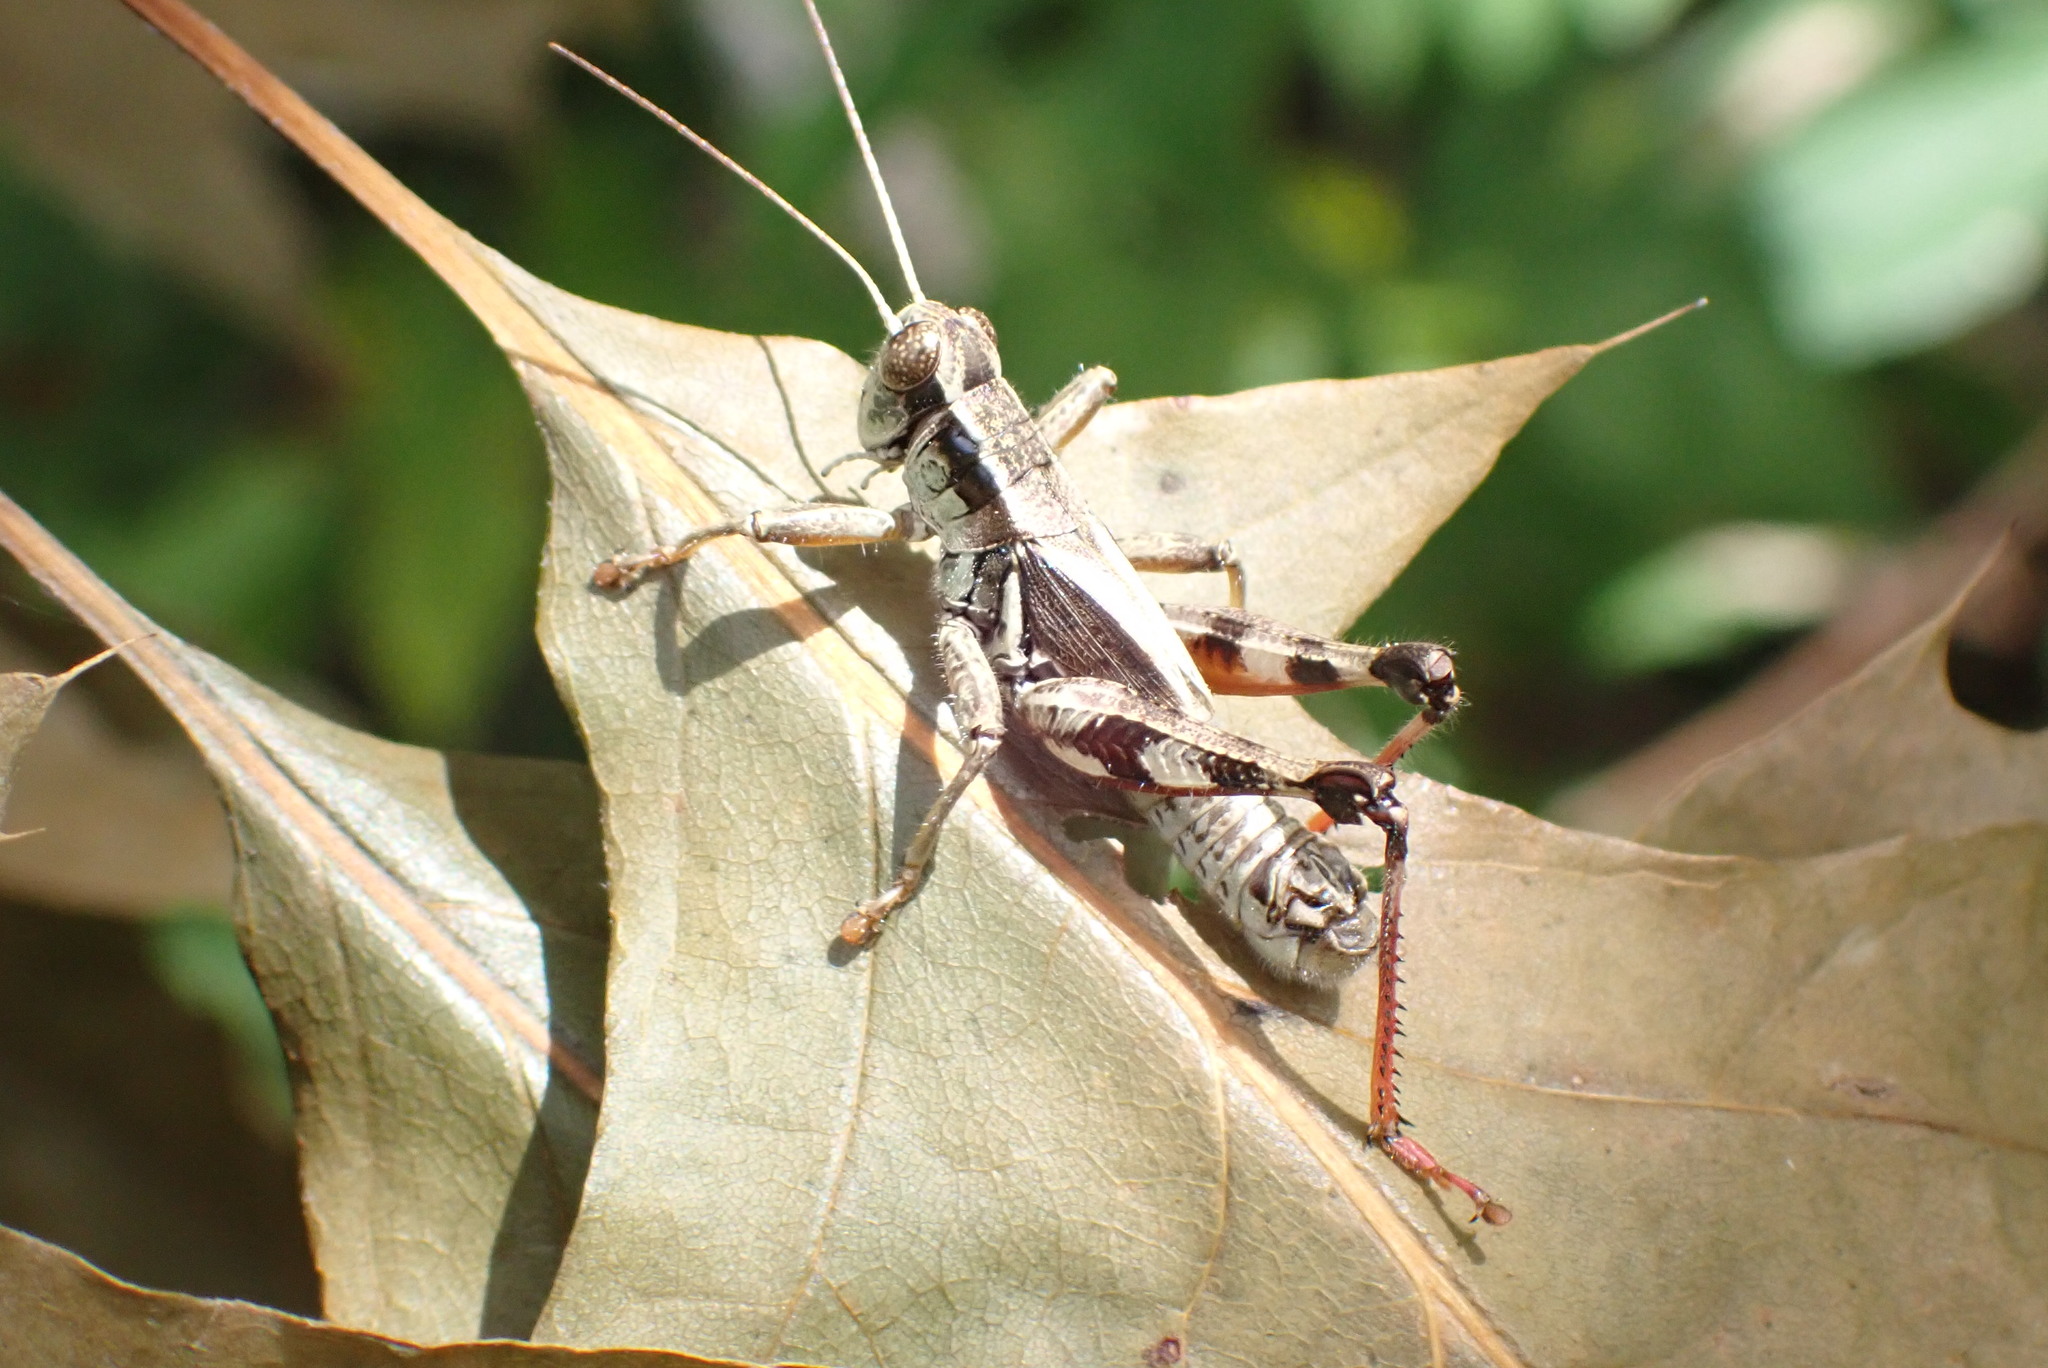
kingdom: Animalia
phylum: Arthropoda
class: Insecta
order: Orthoptera
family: Acrididae
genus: Melanoplus
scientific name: Melanoplus walshii
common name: Walsh's locust
